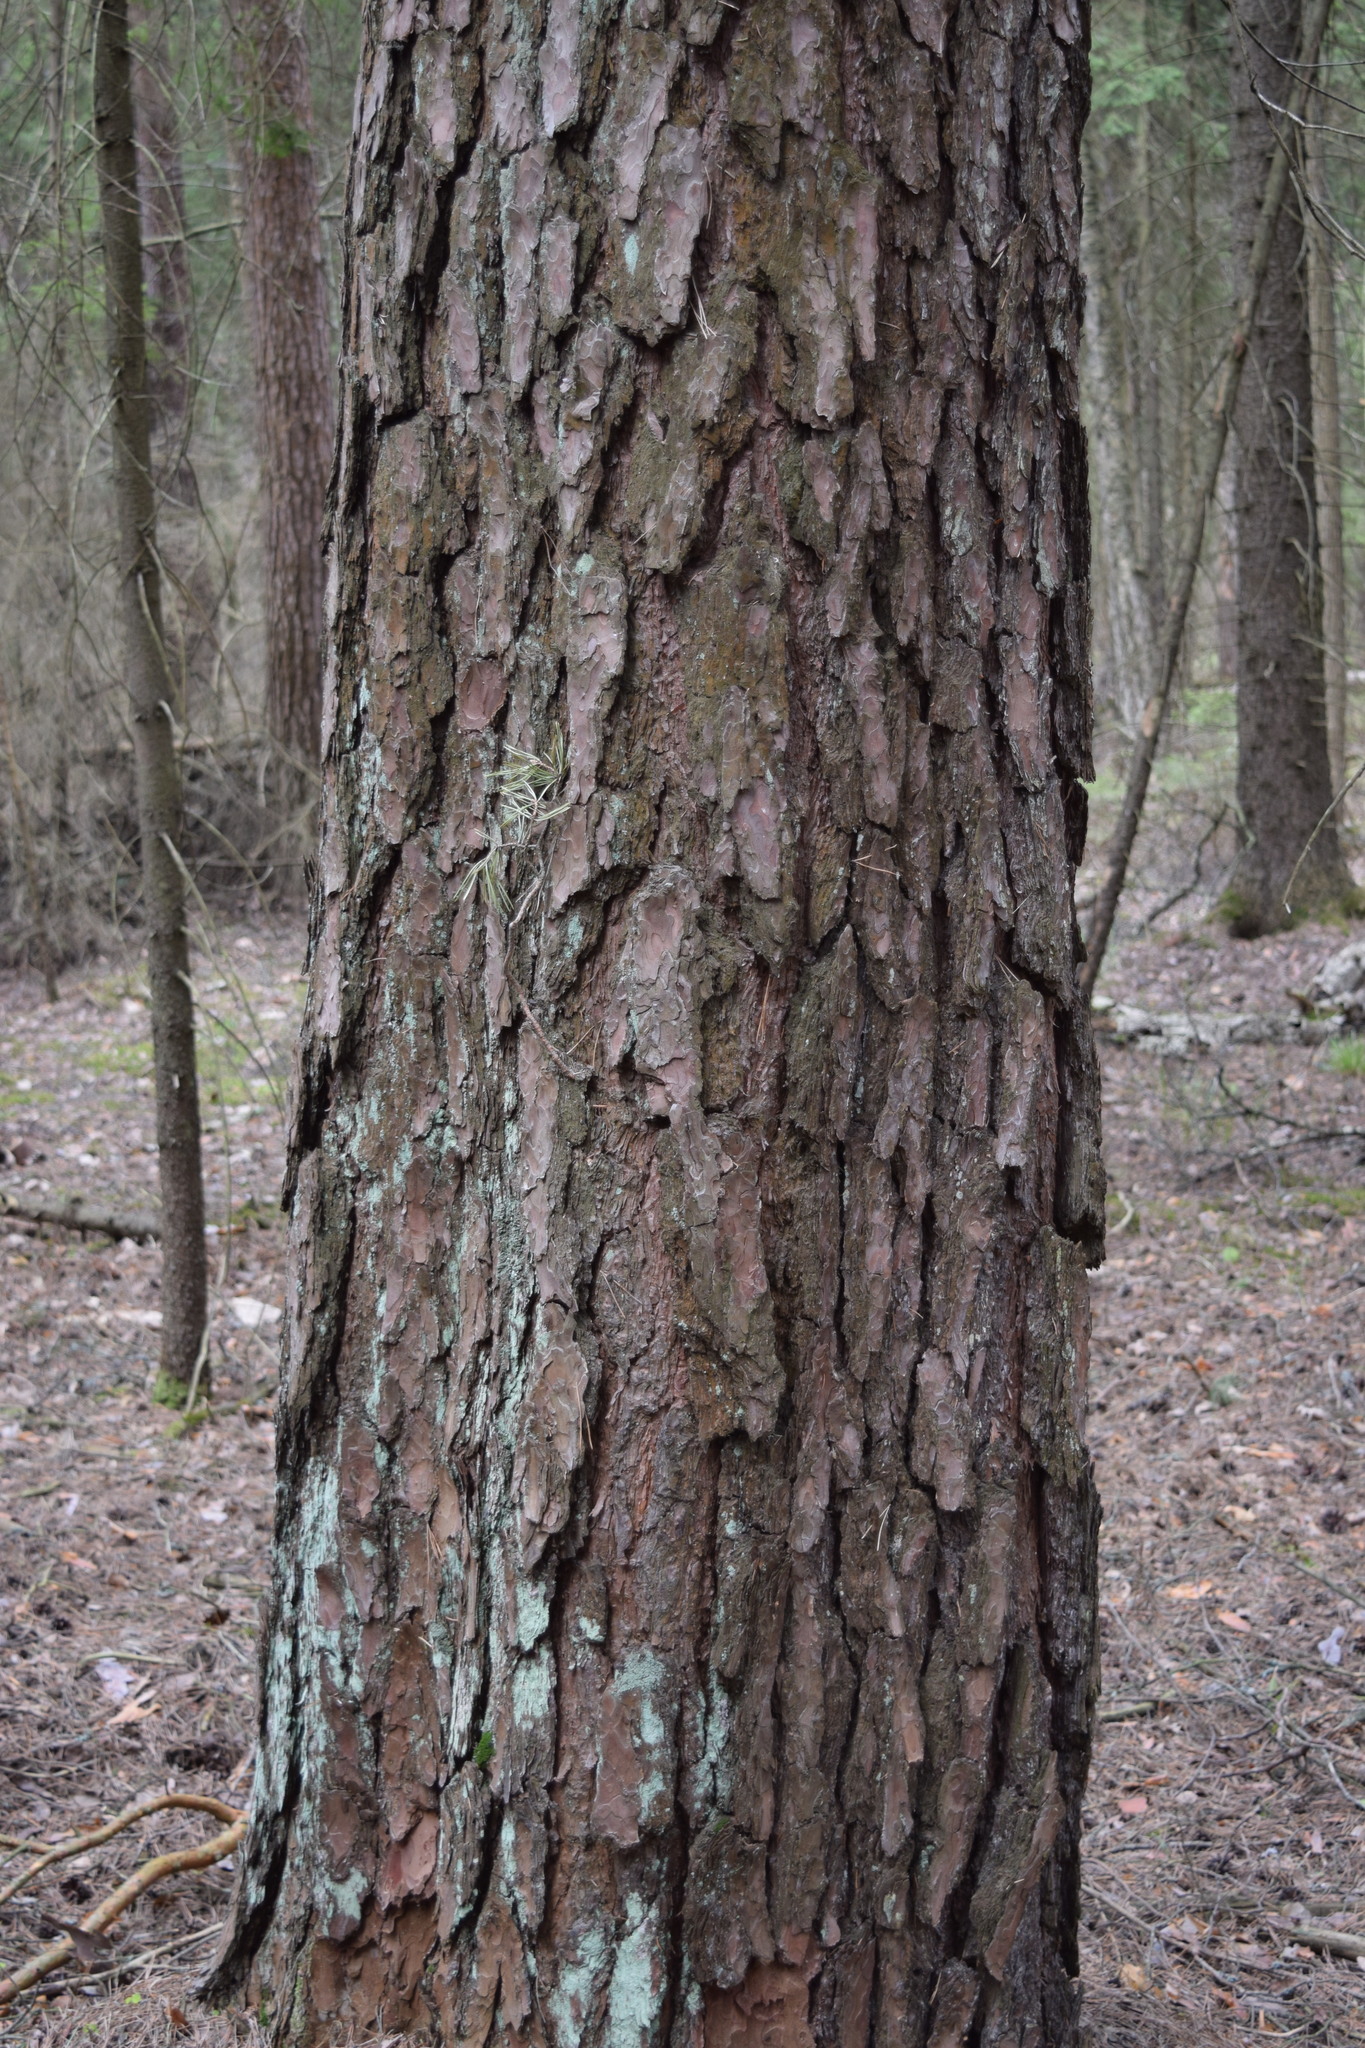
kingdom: Plantae
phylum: Tracheophyta
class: Pinopsida
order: Pinales
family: Pinaceae
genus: Pinus
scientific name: Pinus sylvestris
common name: Scots pine
